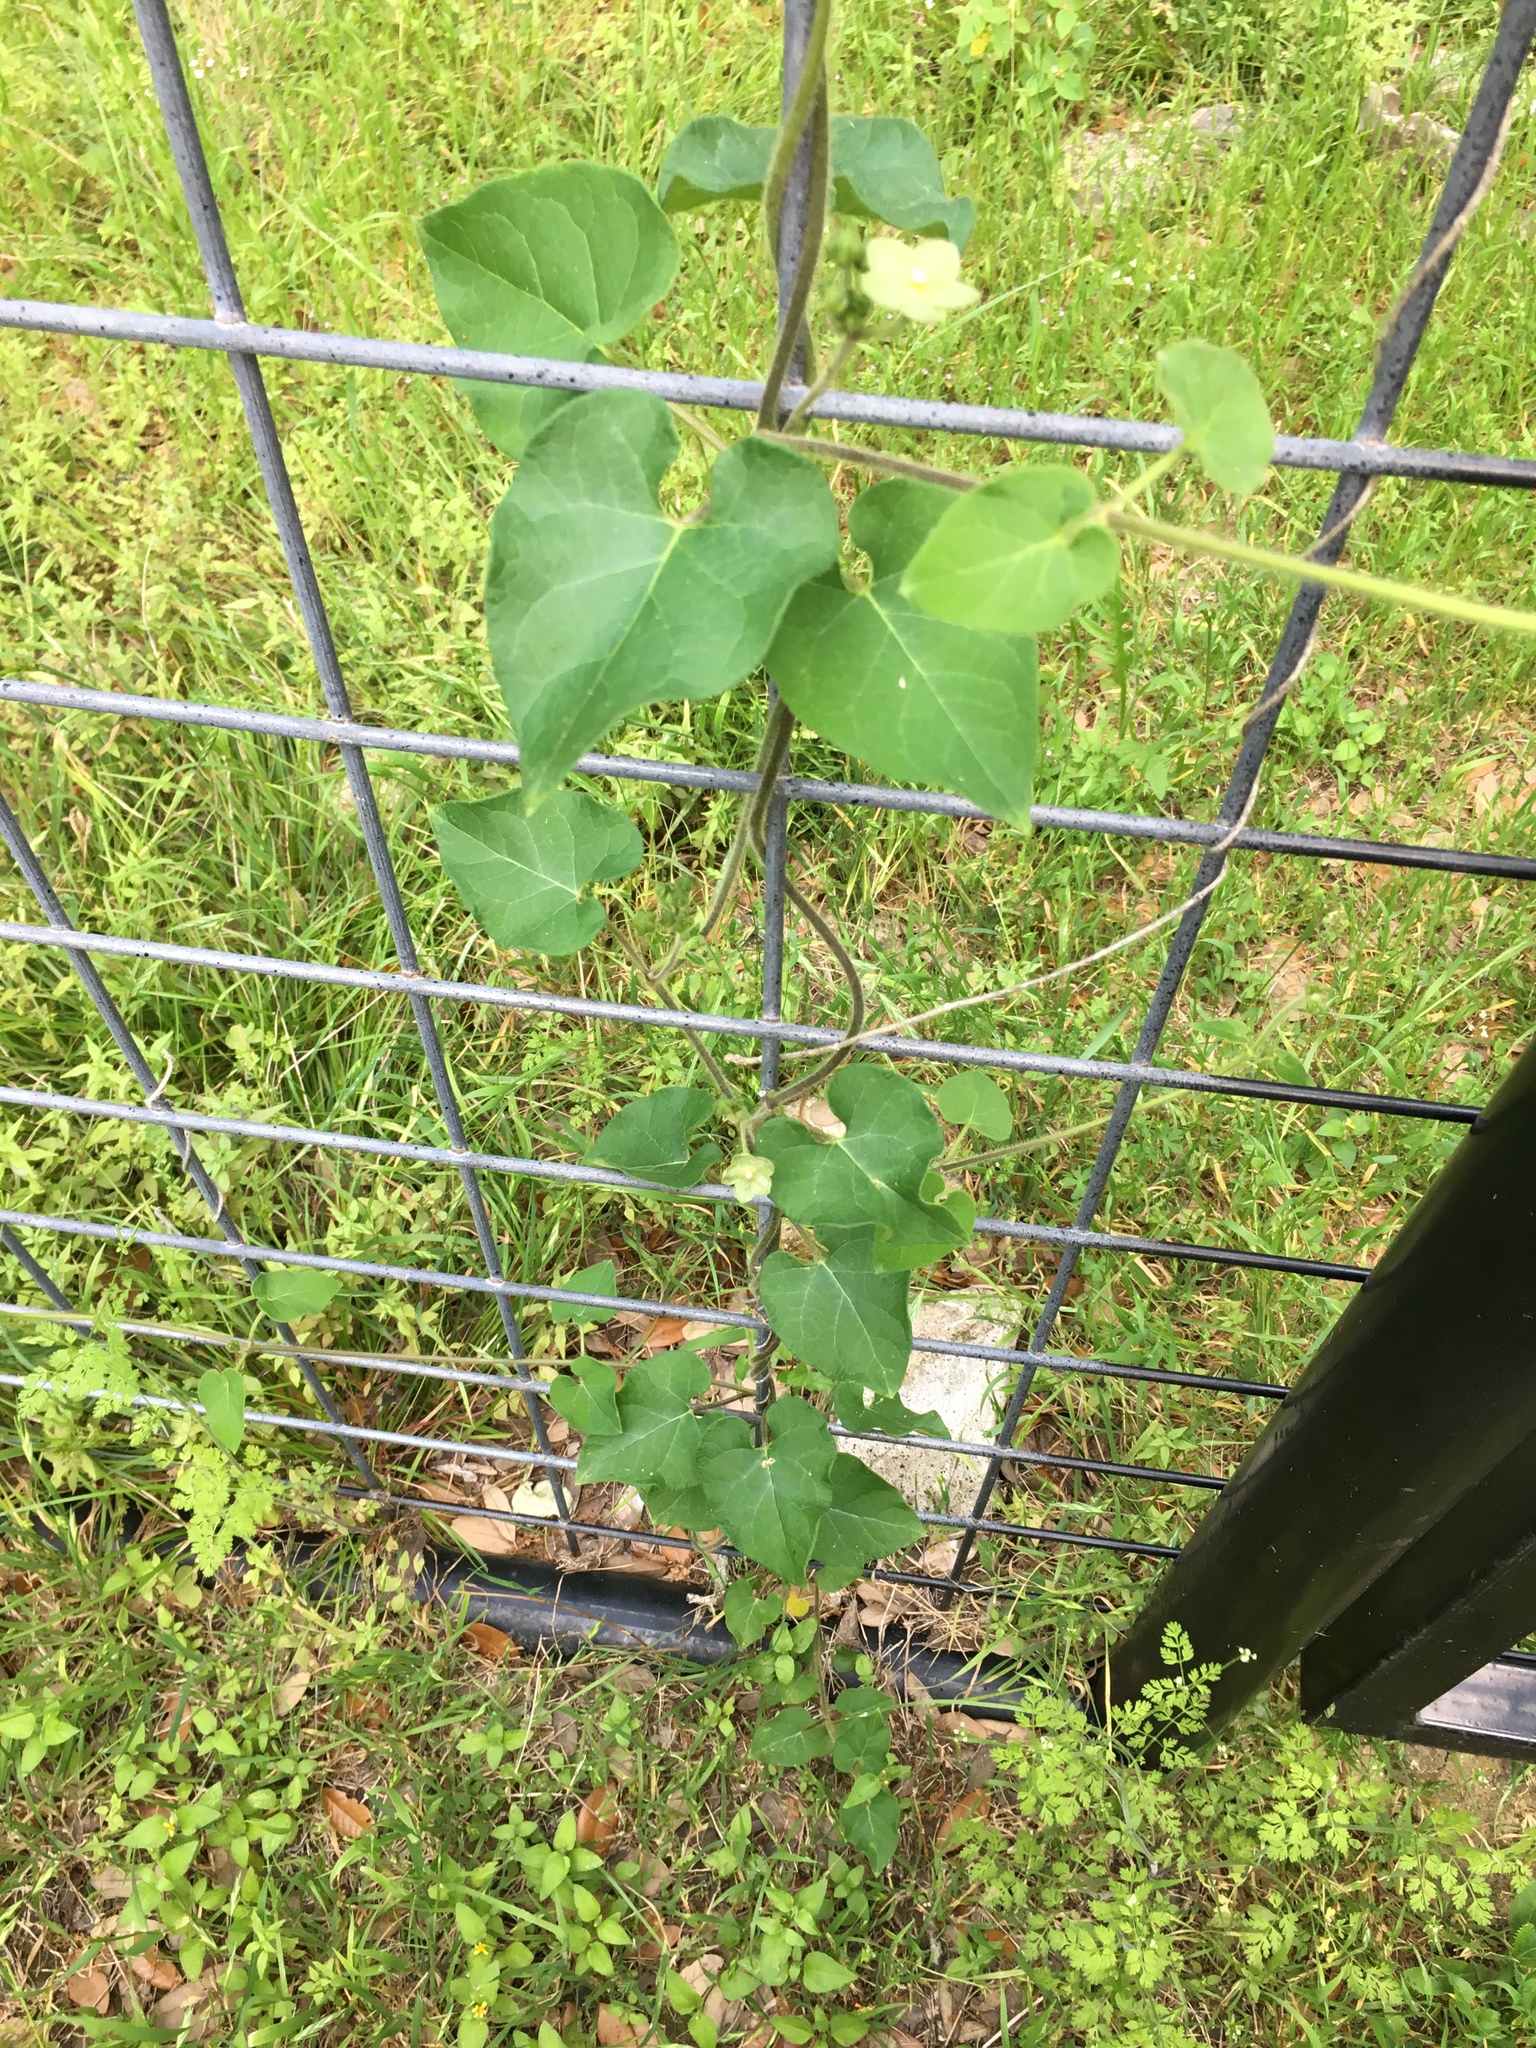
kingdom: Plantae
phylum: Tracheophyta
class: Magnoliopsida
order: Gentianales
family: Apocynaceae
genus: Dictyanthus
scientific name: Dictyanthus reticulatus
